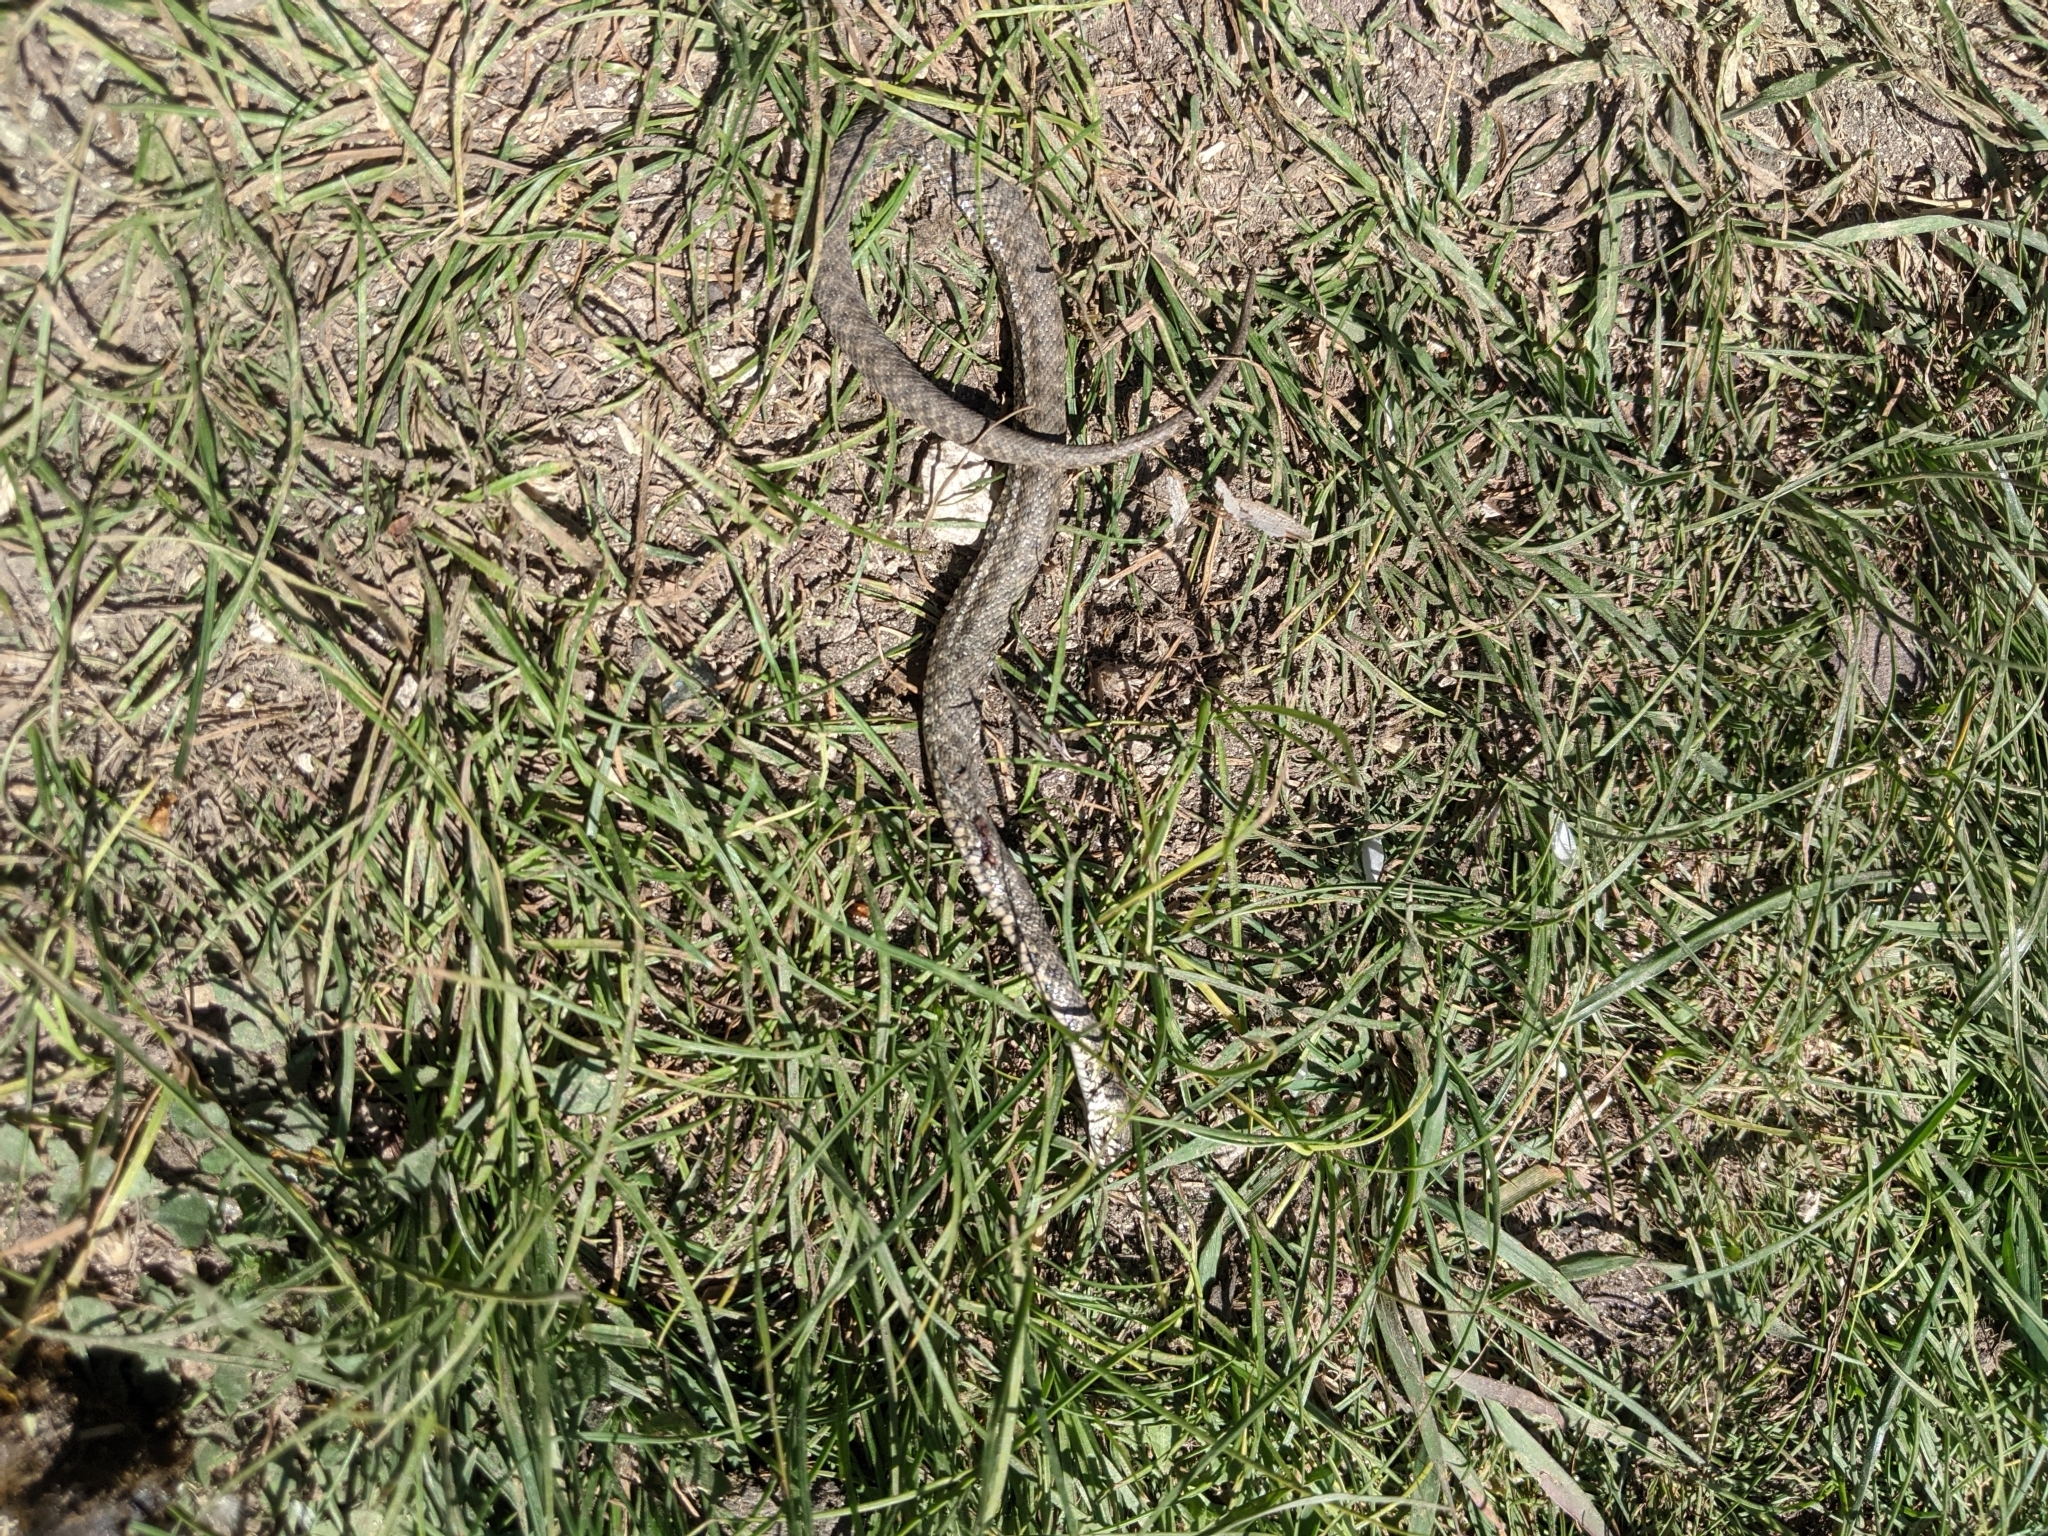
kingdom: Animalia
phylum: Chordata
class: Squamata
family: Colubridae
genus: Natrix
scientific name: Natrix tessellata
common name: Dice snake
